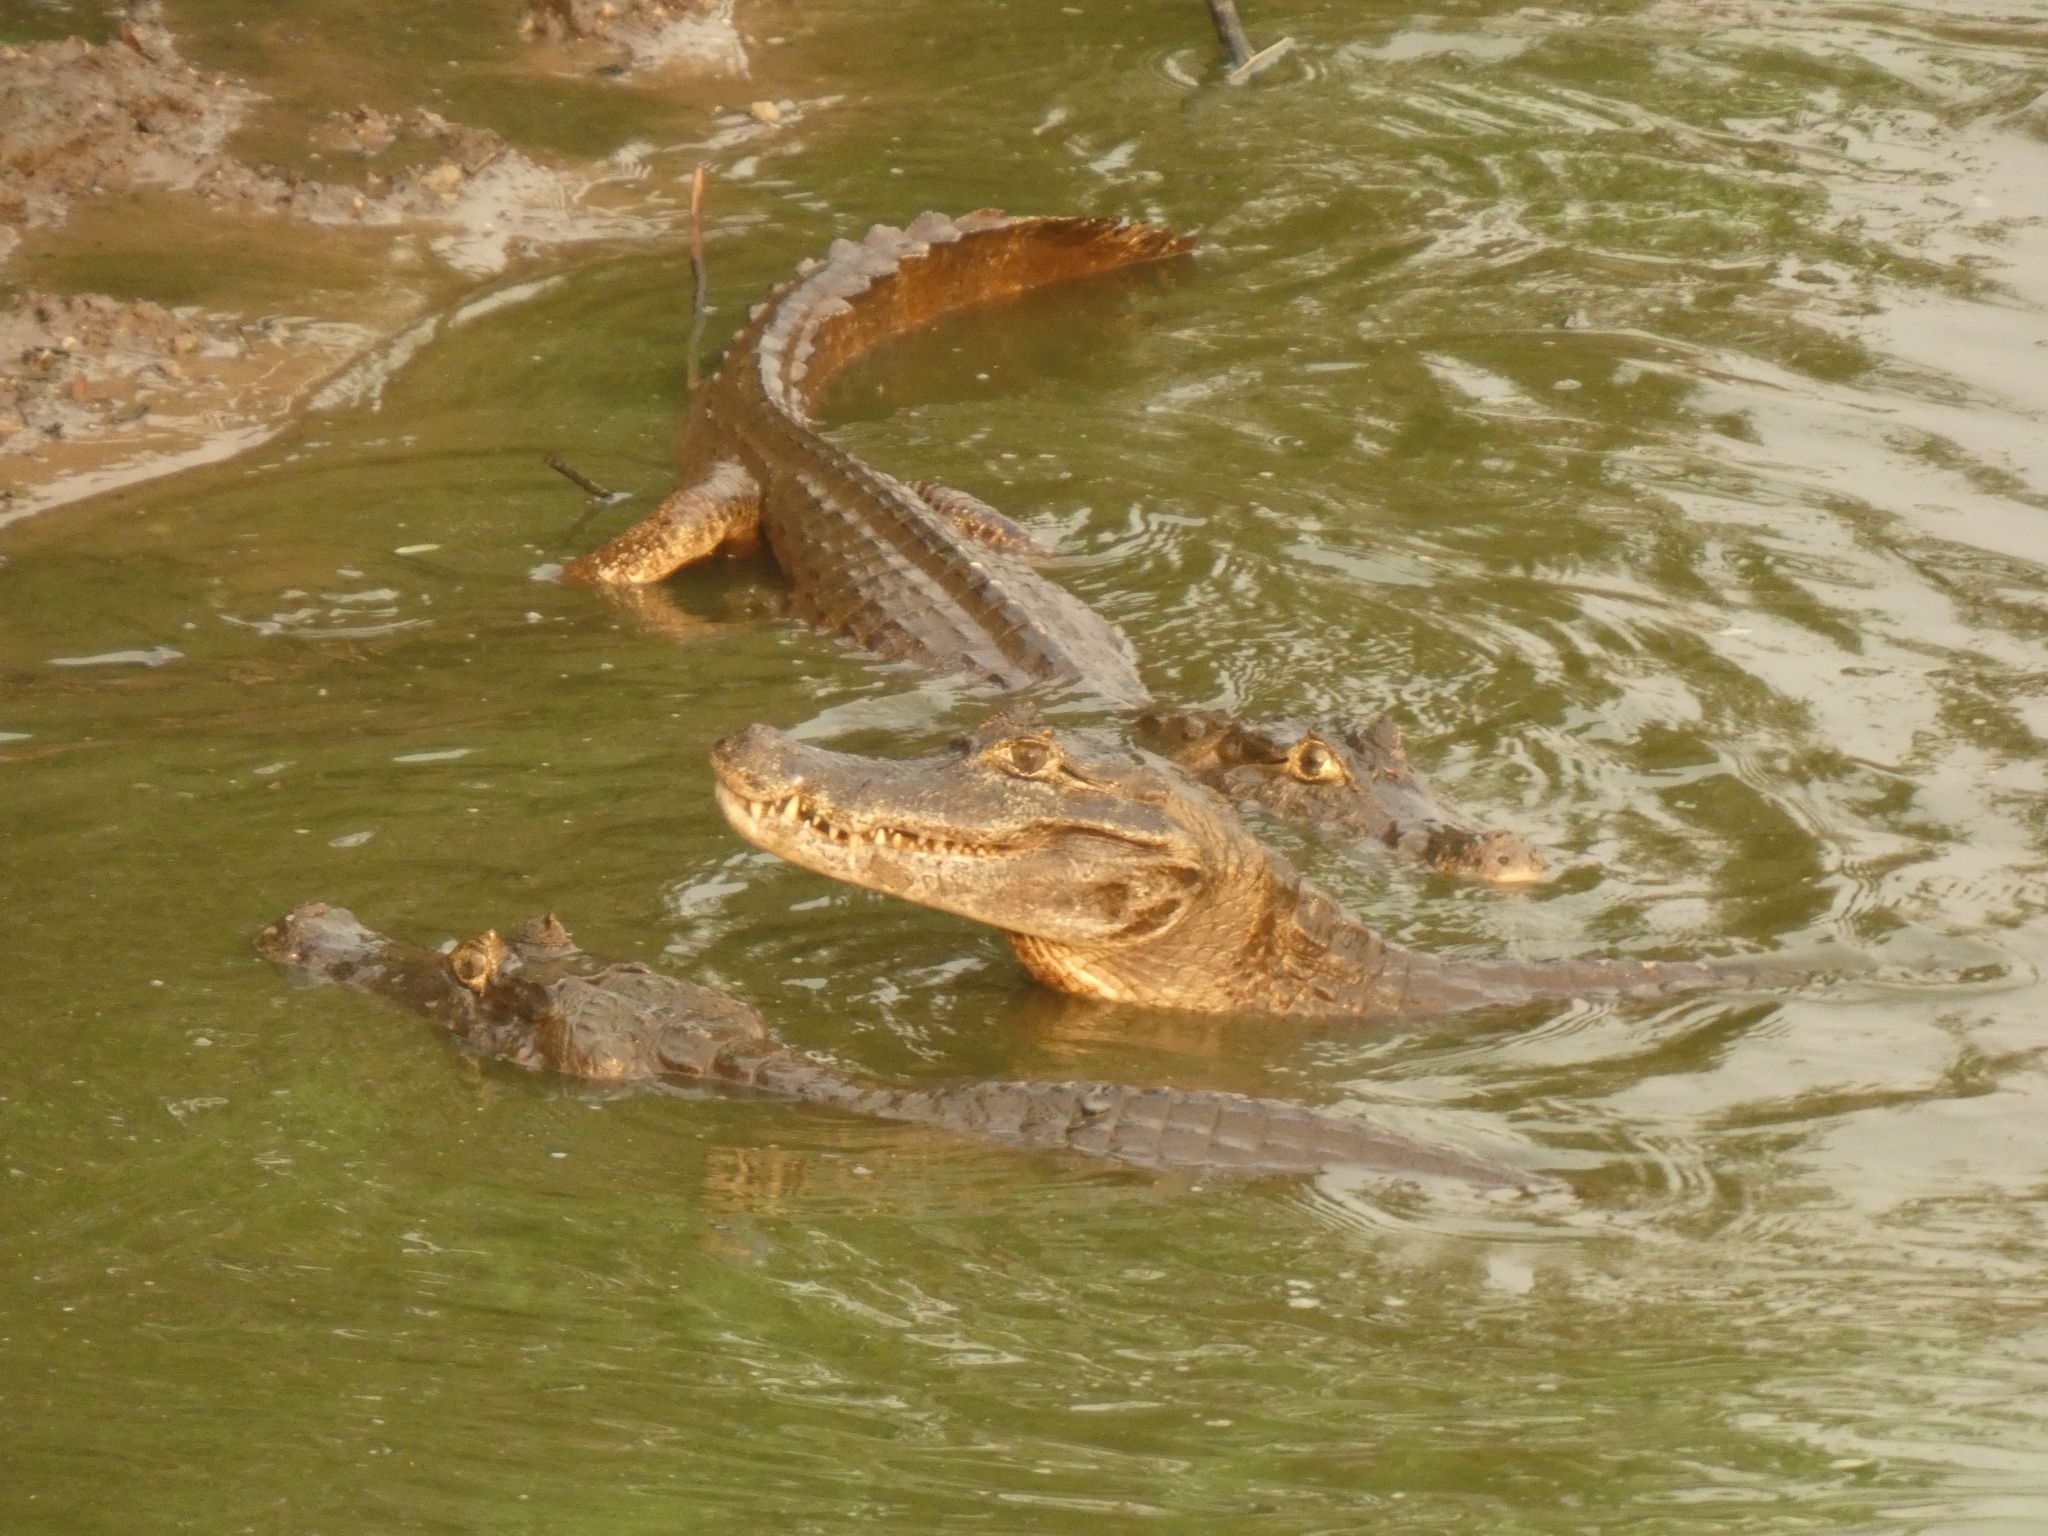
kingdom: Animalia
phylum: Chordata
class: Crocodylia
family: Alligatoridae
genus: Caiman
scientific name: Caiman yacare
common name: Yacare caiman
